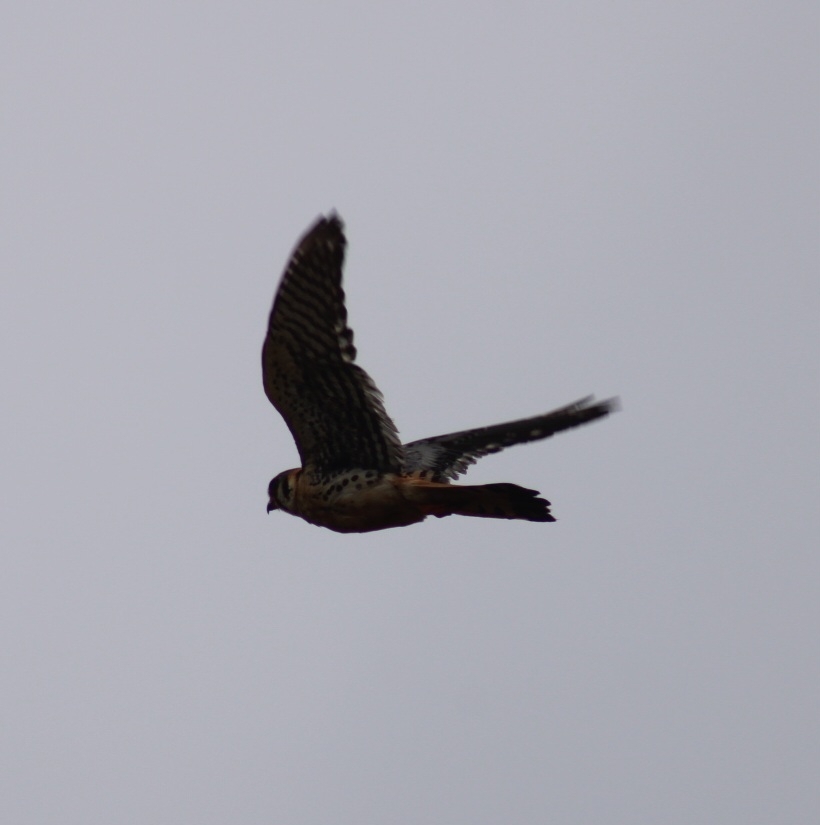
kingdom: Animalia
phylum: Chordata
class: Aves
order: Falconiformes
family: Falconidae
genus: Falco
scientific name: Falco sparverius
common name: American kestrel
